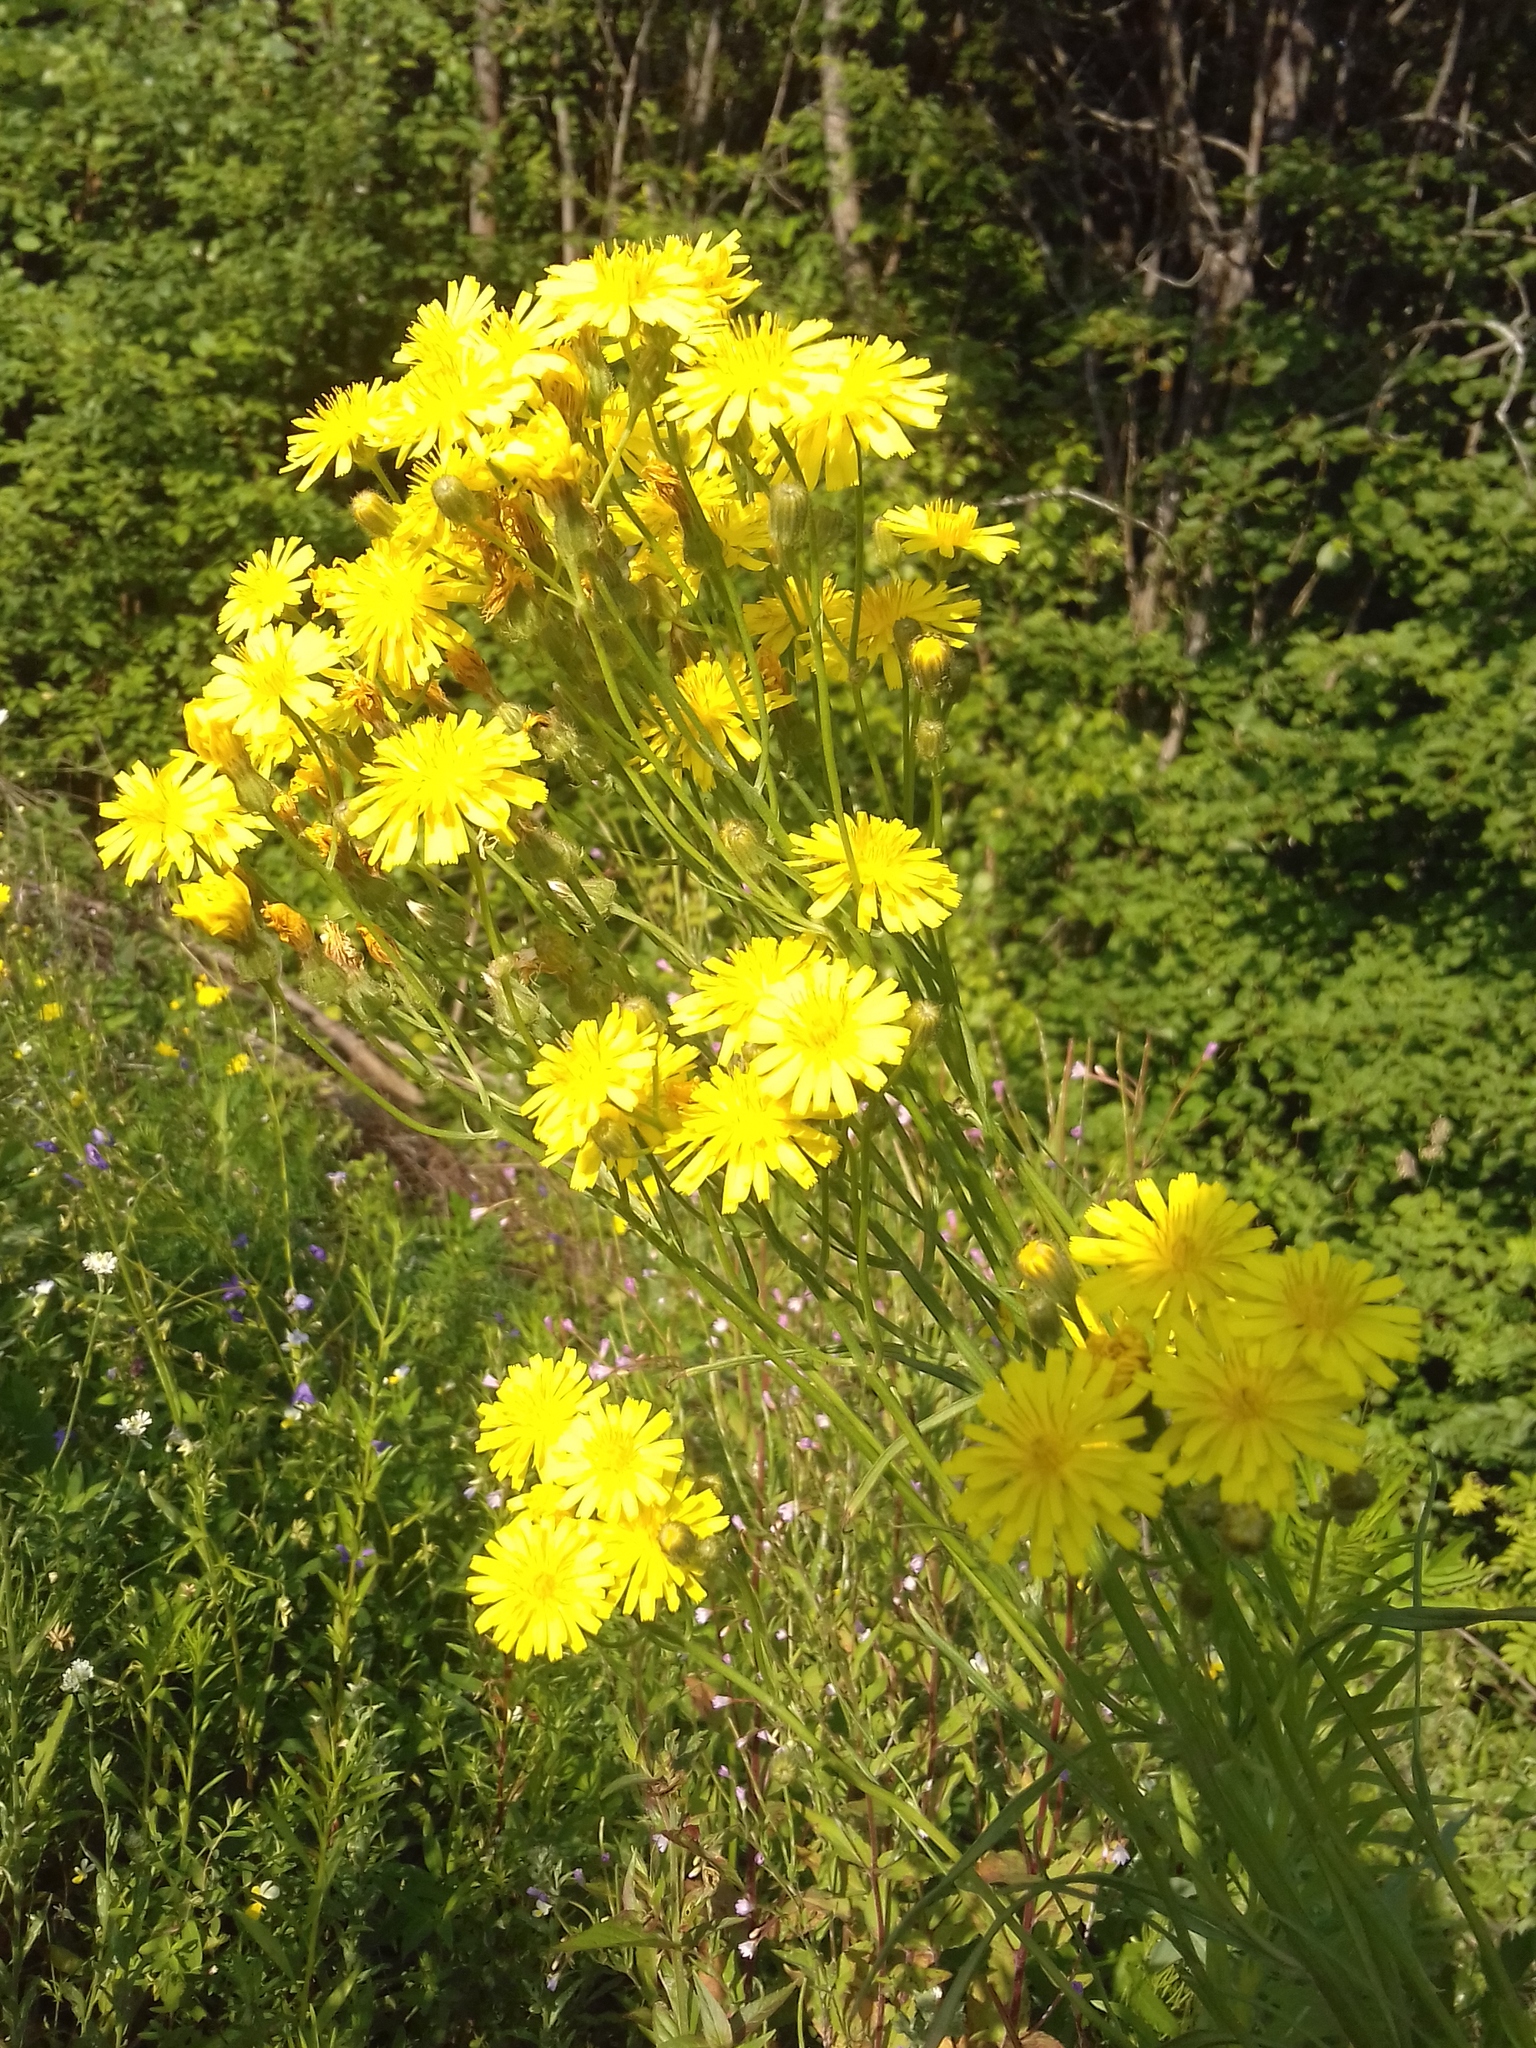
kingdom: Plantae
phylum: Tracheophyta
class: Magnoliopsida
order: Asterales
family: Asteraceae
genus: Crepis
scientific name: Crepis tectorum
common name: Narrow-leaved hawk's-beard
